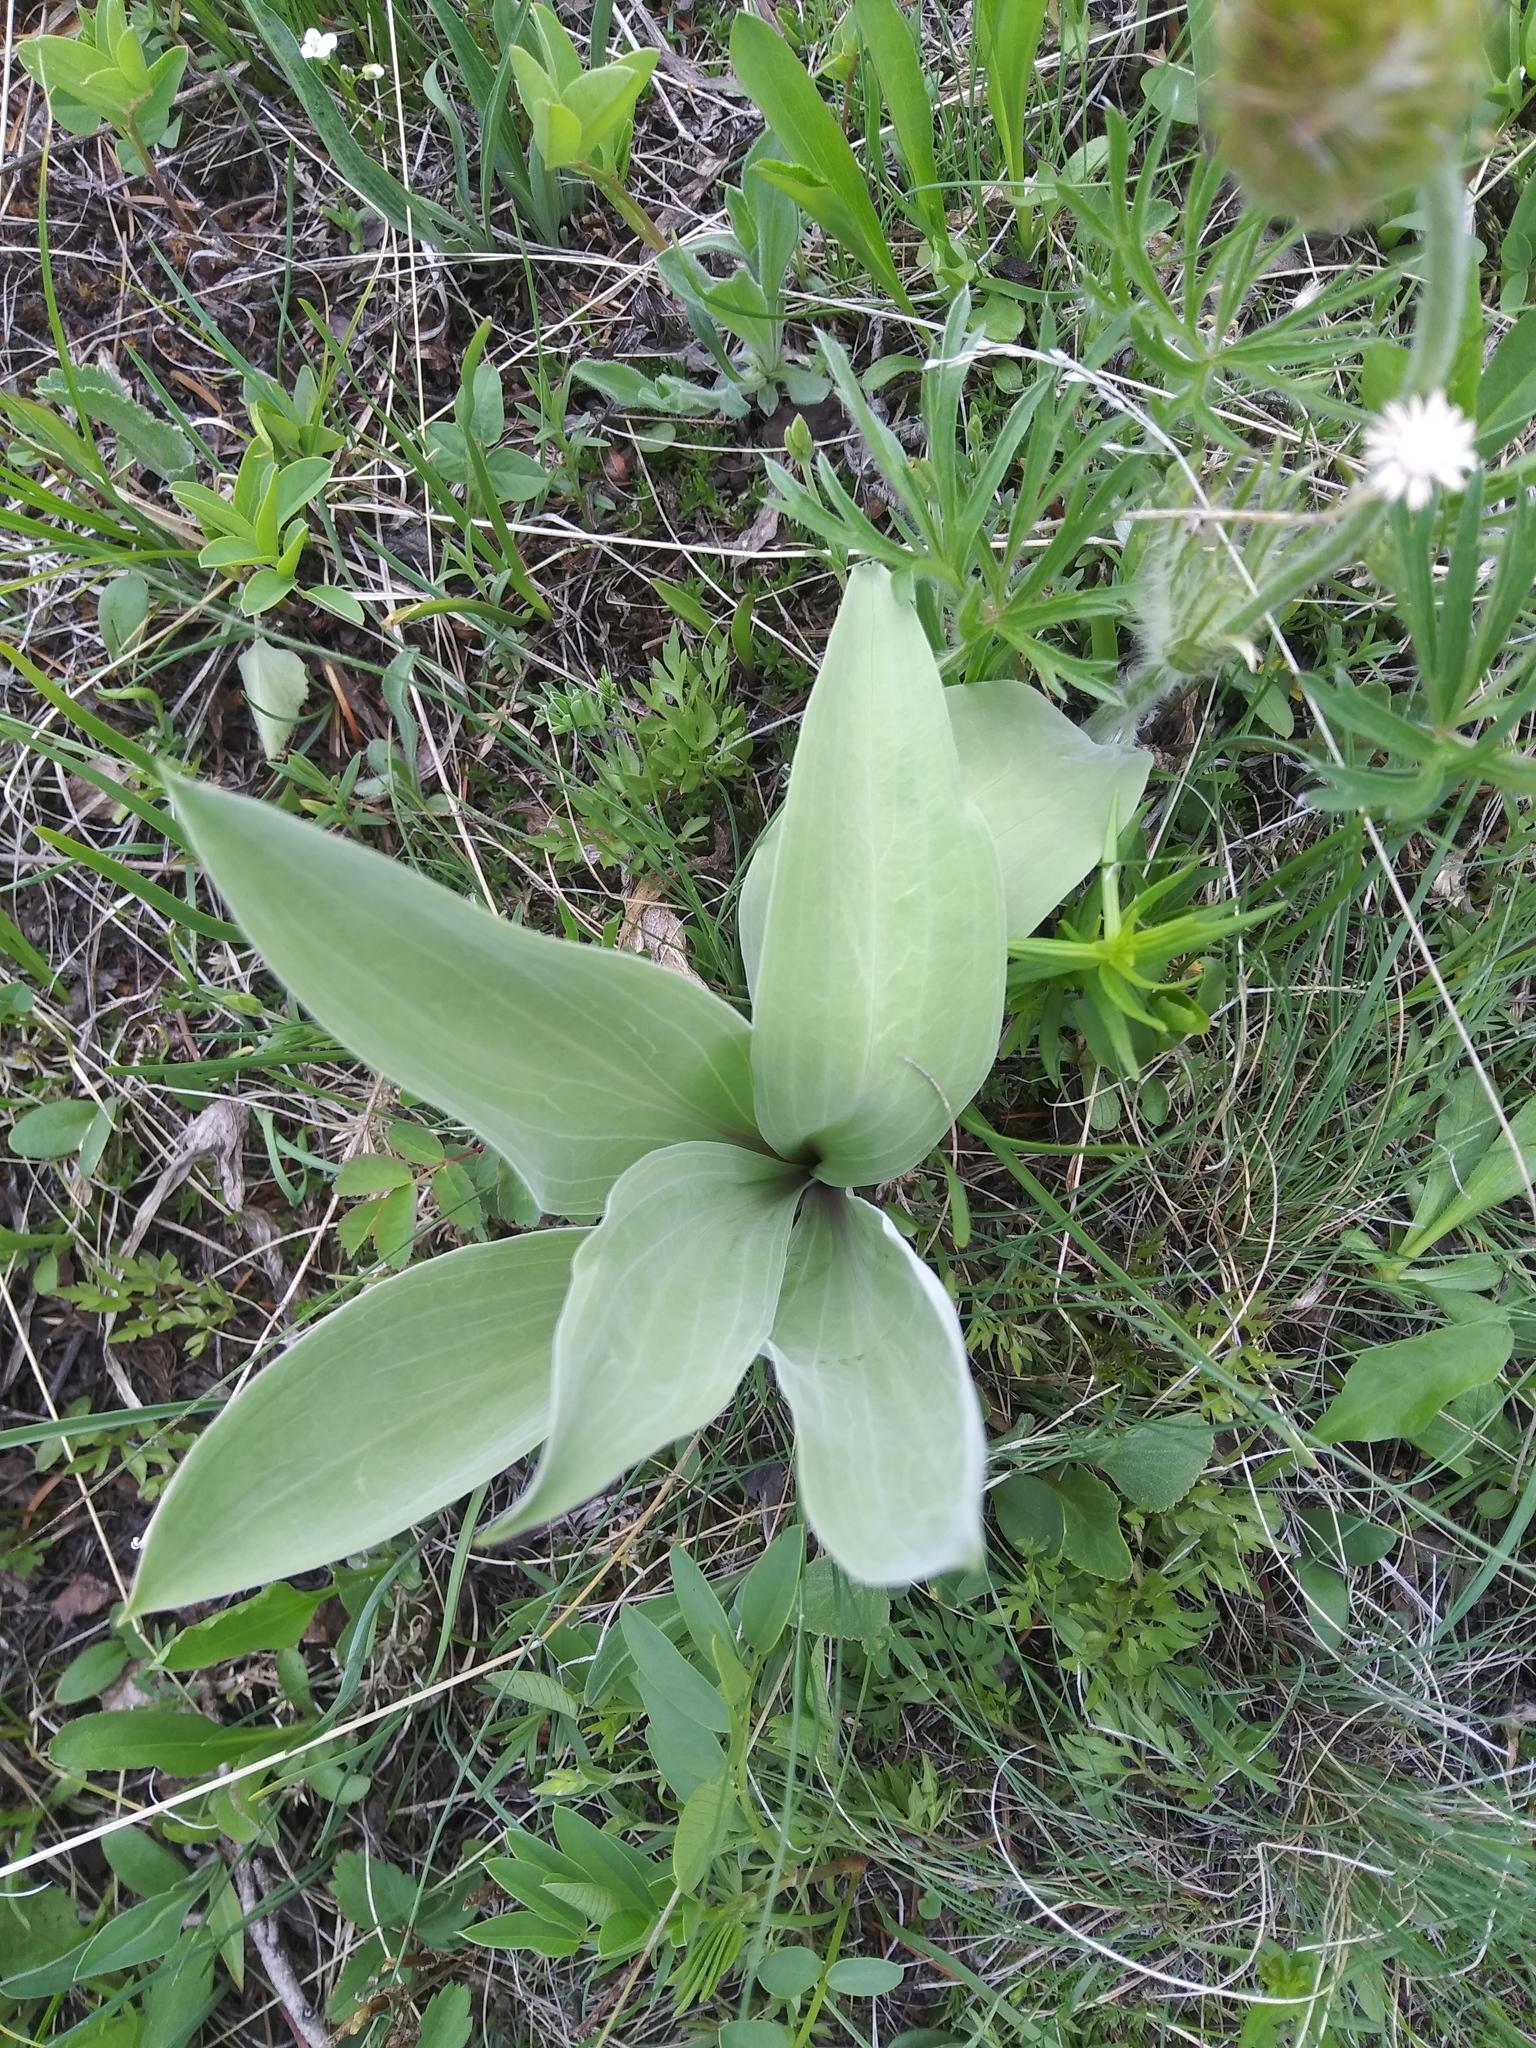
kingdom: Plantae
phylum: Tracheophyta
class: Magnoliopsida
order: Gentianales
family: Gentianaceae
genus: Frasera
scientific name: Frasera speciosa
